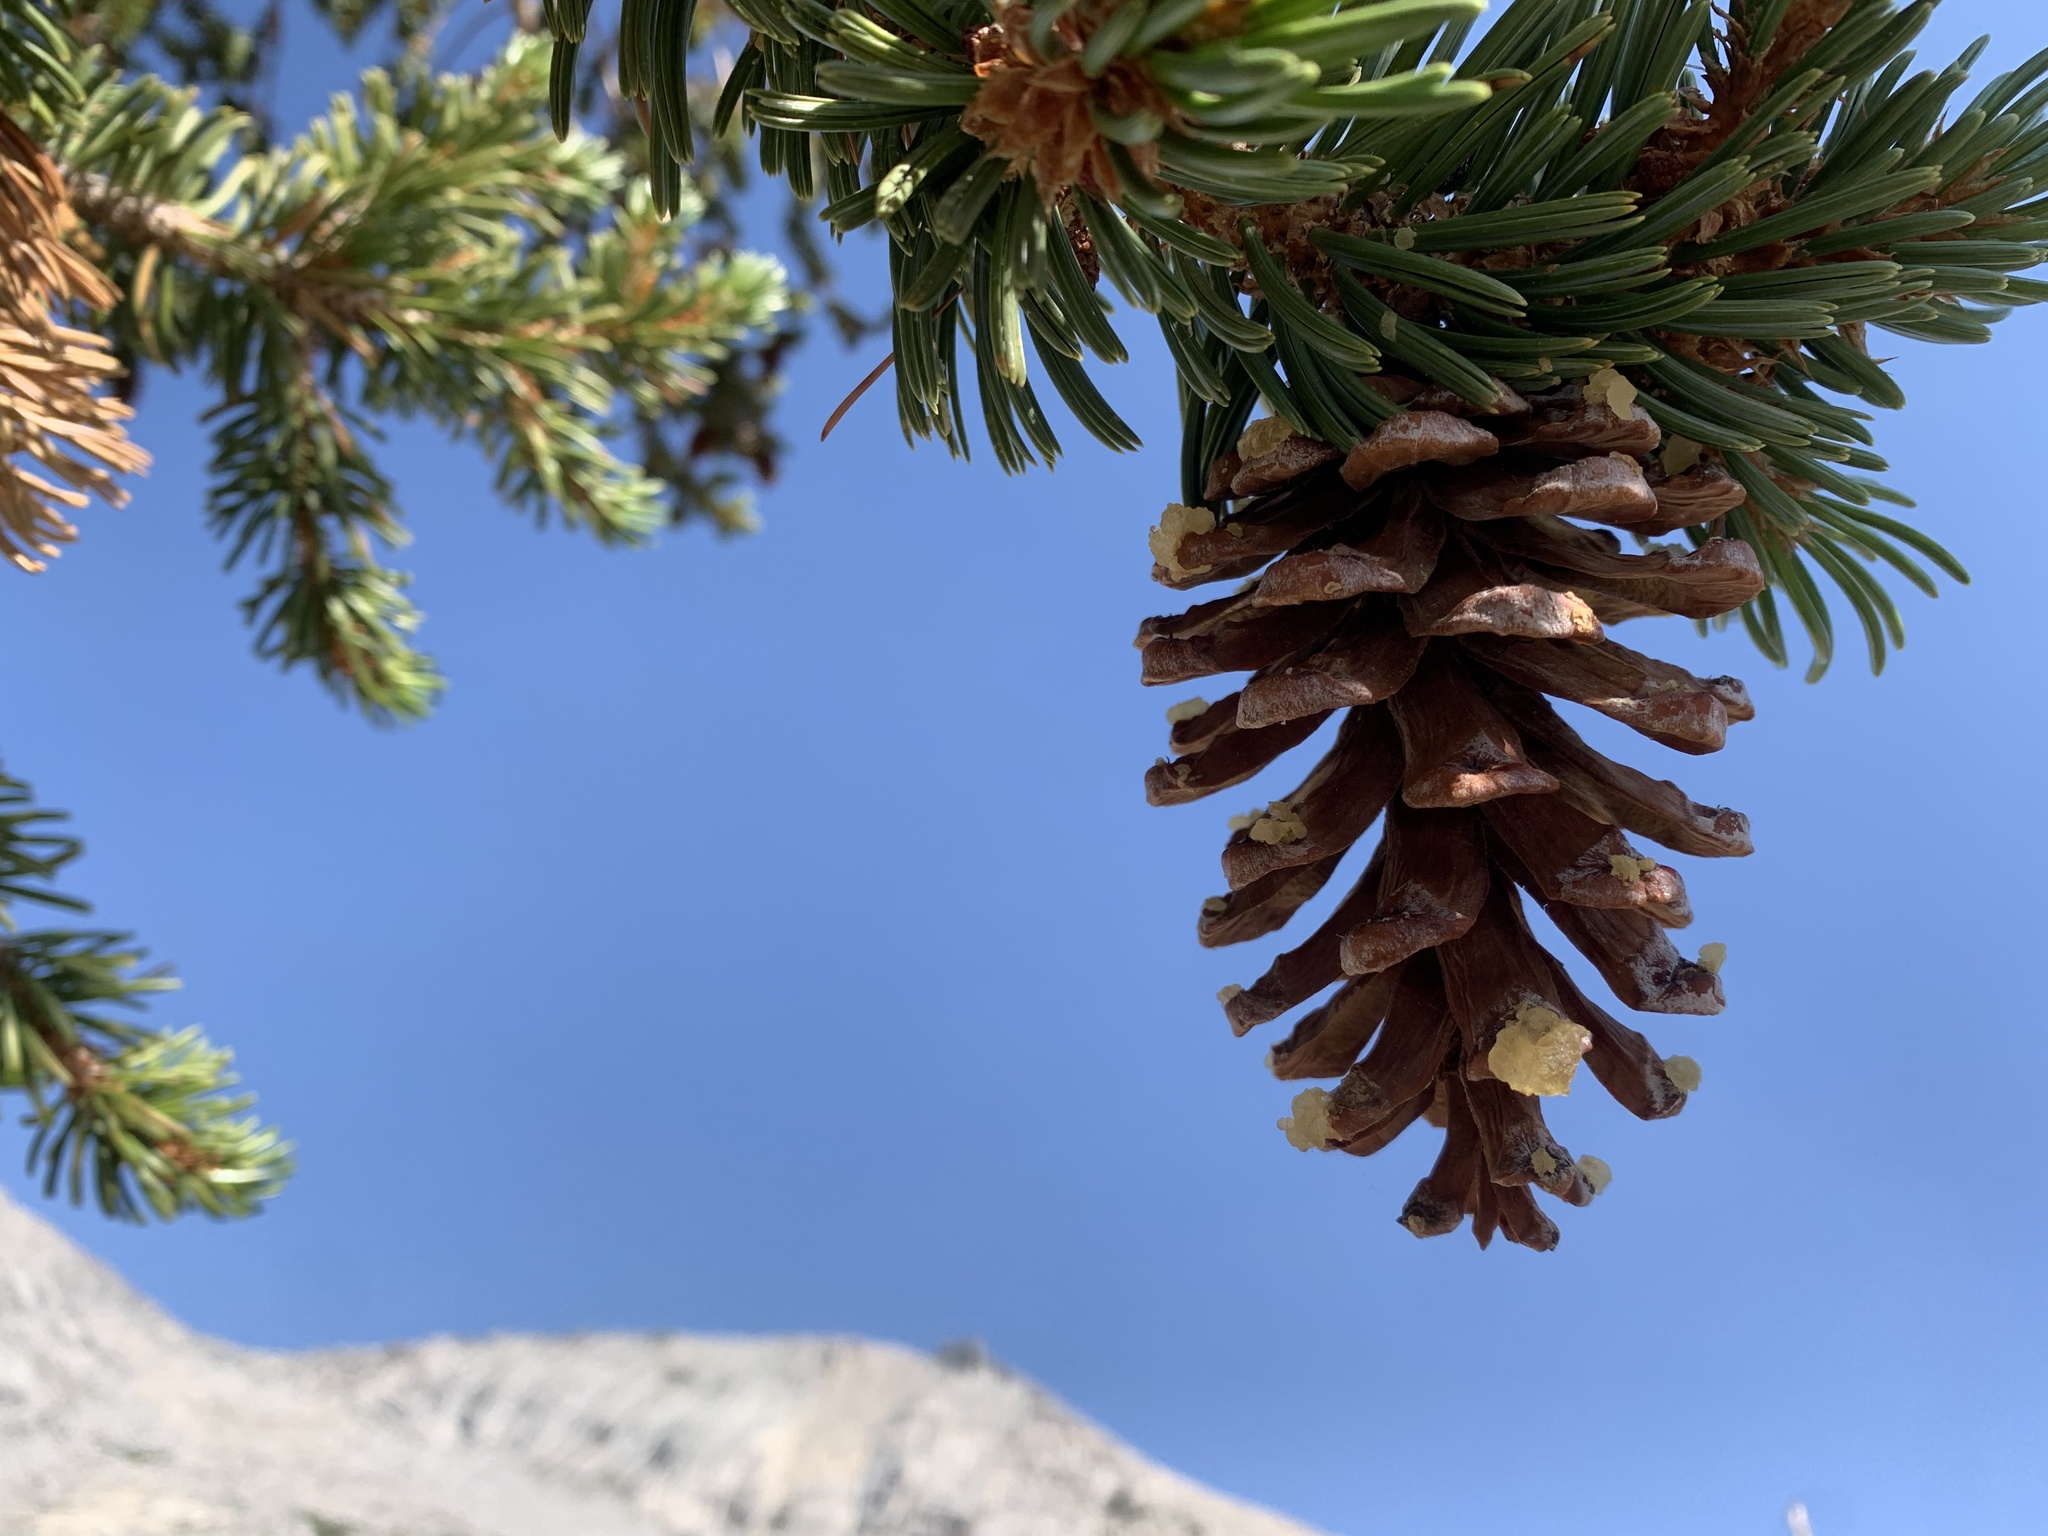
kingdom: Plantae
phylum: Tracheophyta
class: Pinopsida
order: Pinales
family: Pinaceae
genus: Pinus
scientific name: Pinus balfouriana
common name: Foxtail pine
